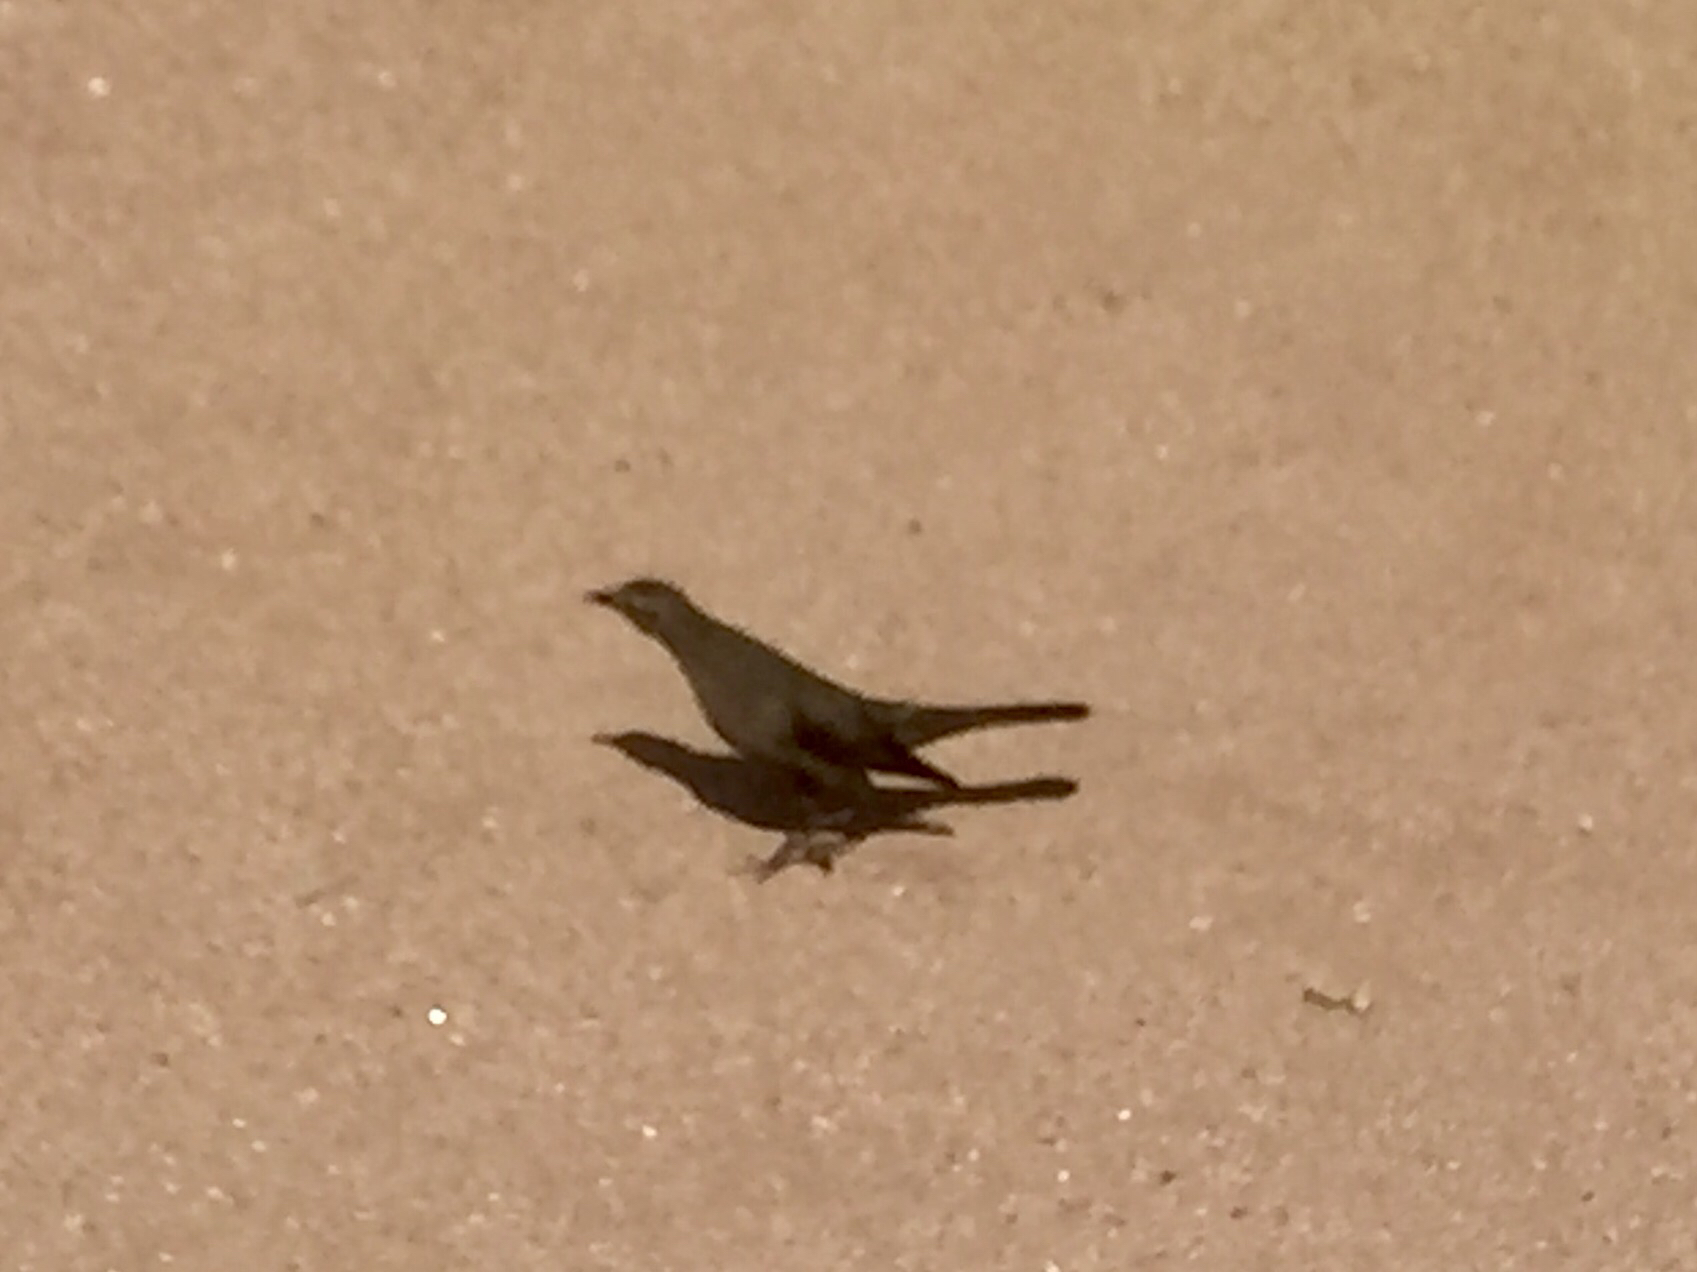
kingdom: Animalia
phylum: Chordata
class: Aves
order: Passeriformes
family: Icteridae
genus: Euphagus
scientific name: Euphagus cyanocephalus
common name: Brewer's blackbird
